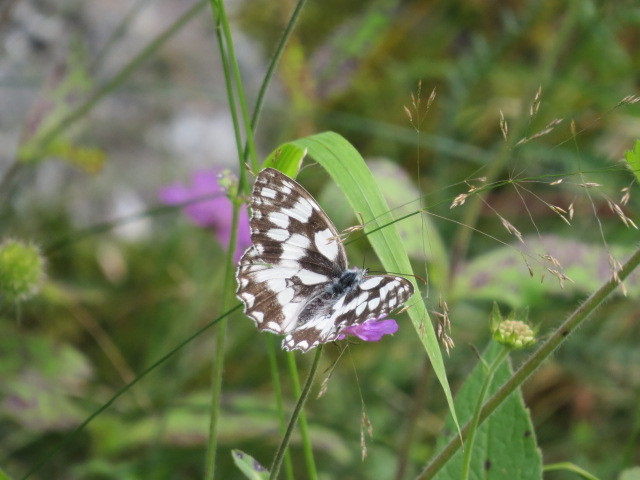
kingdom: Animalia
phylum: Arthropoda
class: Insecta
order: Lepidoptera
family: Nymphalidae
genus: Melanargia
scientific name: Melanargia galathea
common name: Marbled white
